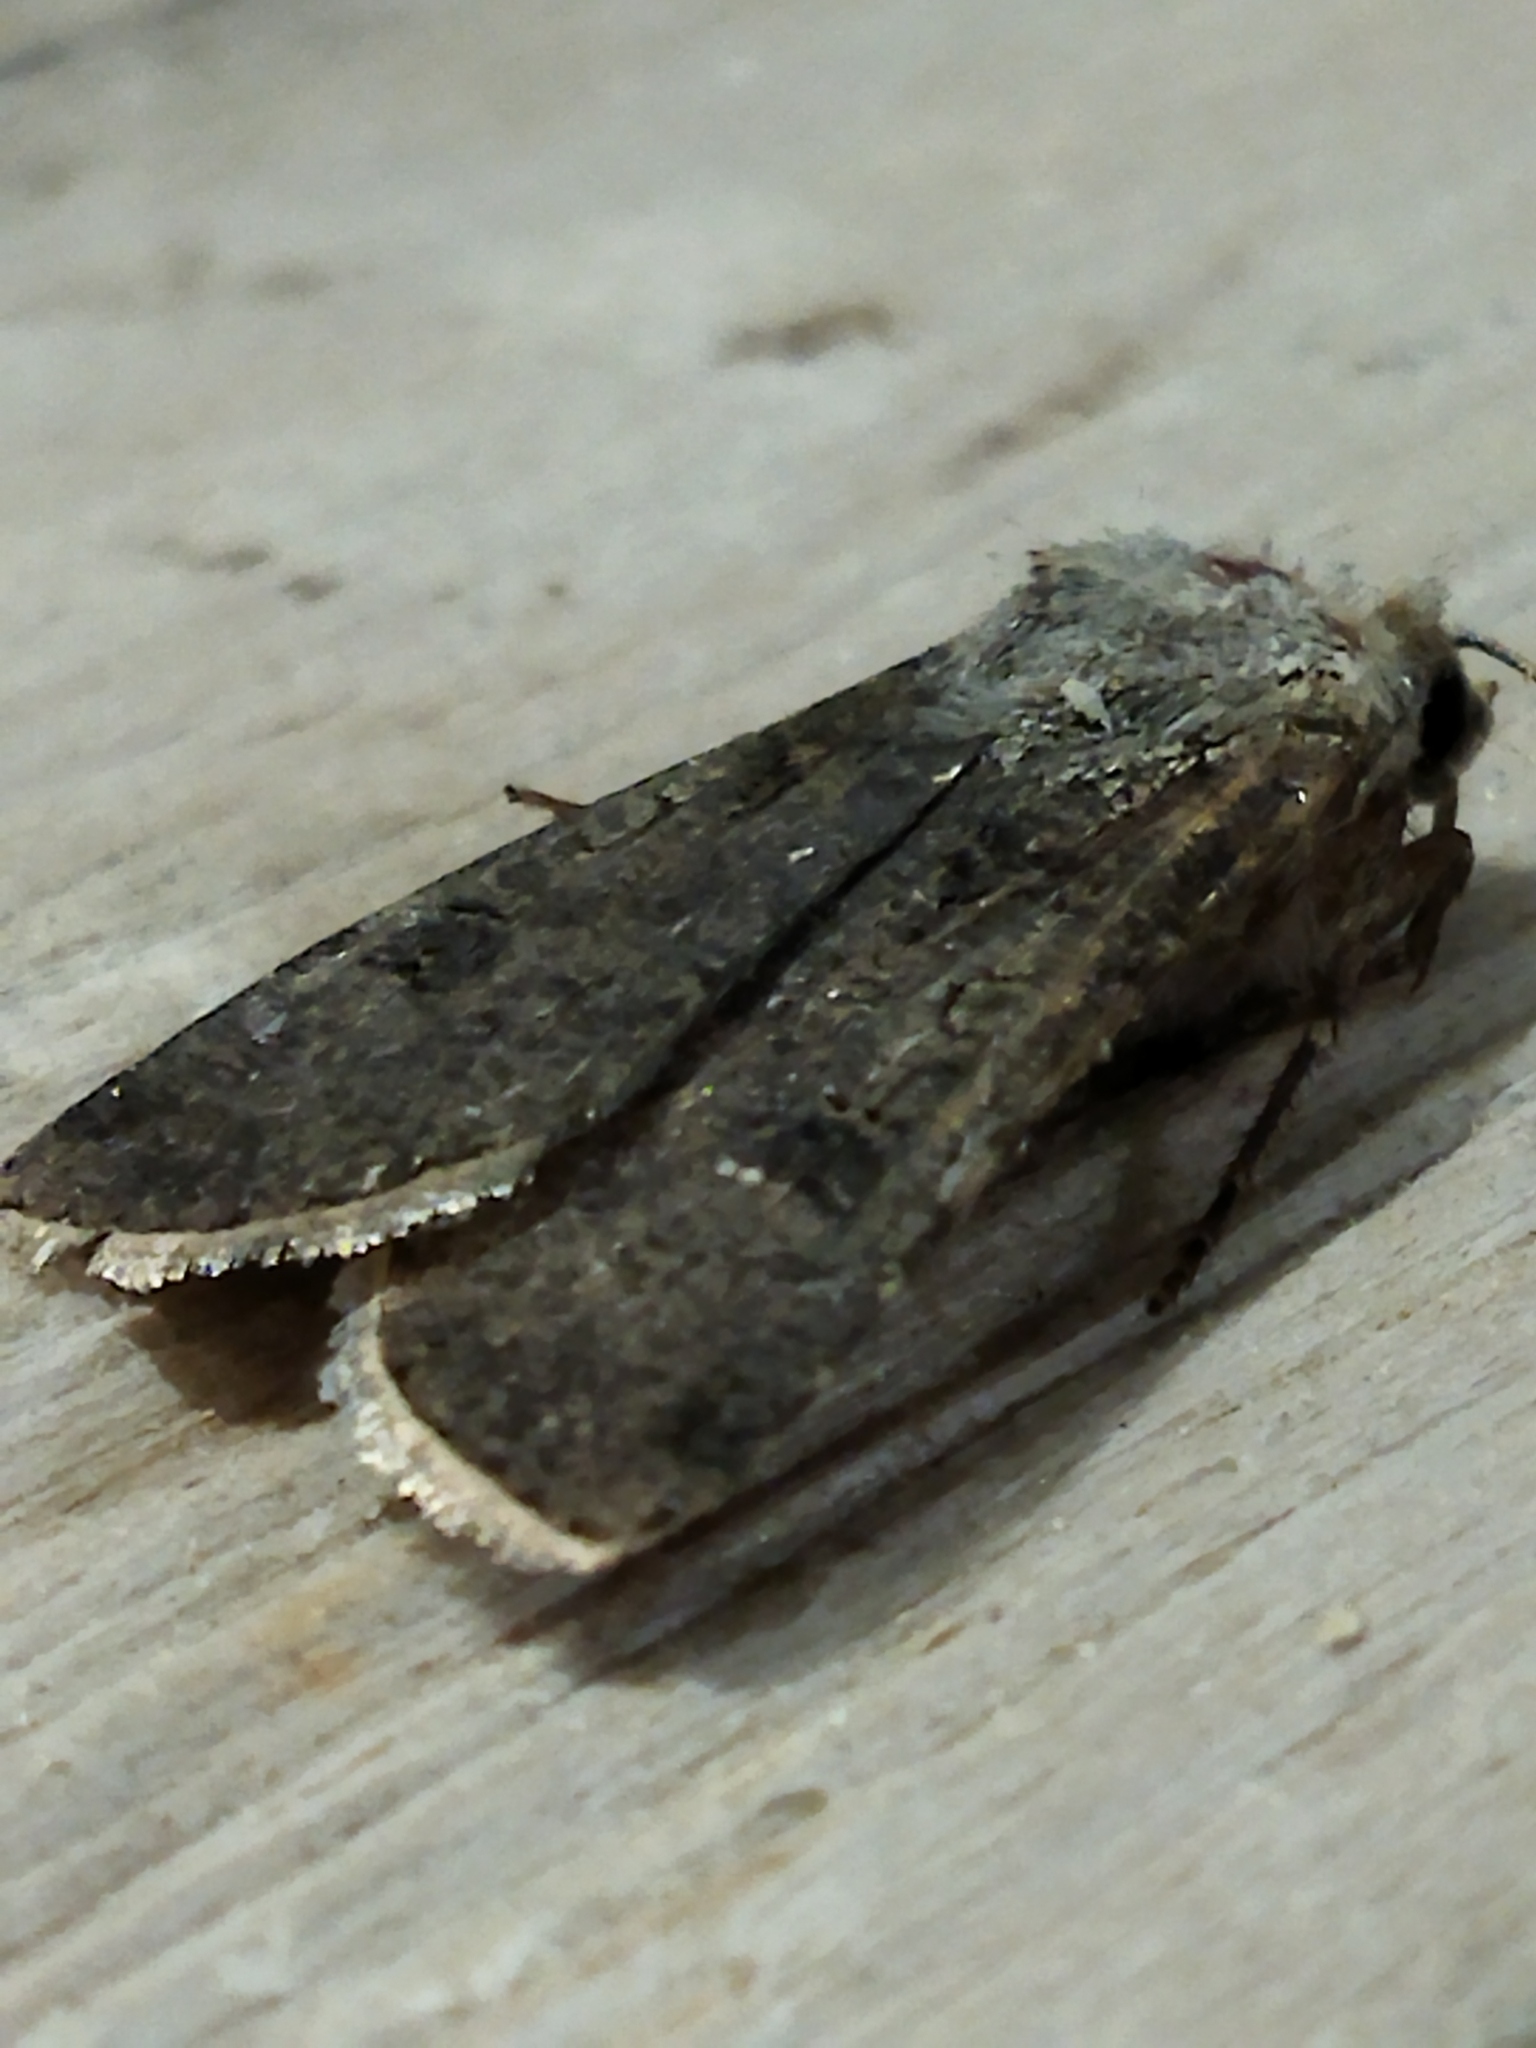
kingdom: Animalia
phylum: Arthropoda
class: Insecta
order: Lepidoptera
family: Noctuidae
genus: Agrotis
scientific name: Agrotis segetum
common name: Turnip moth
